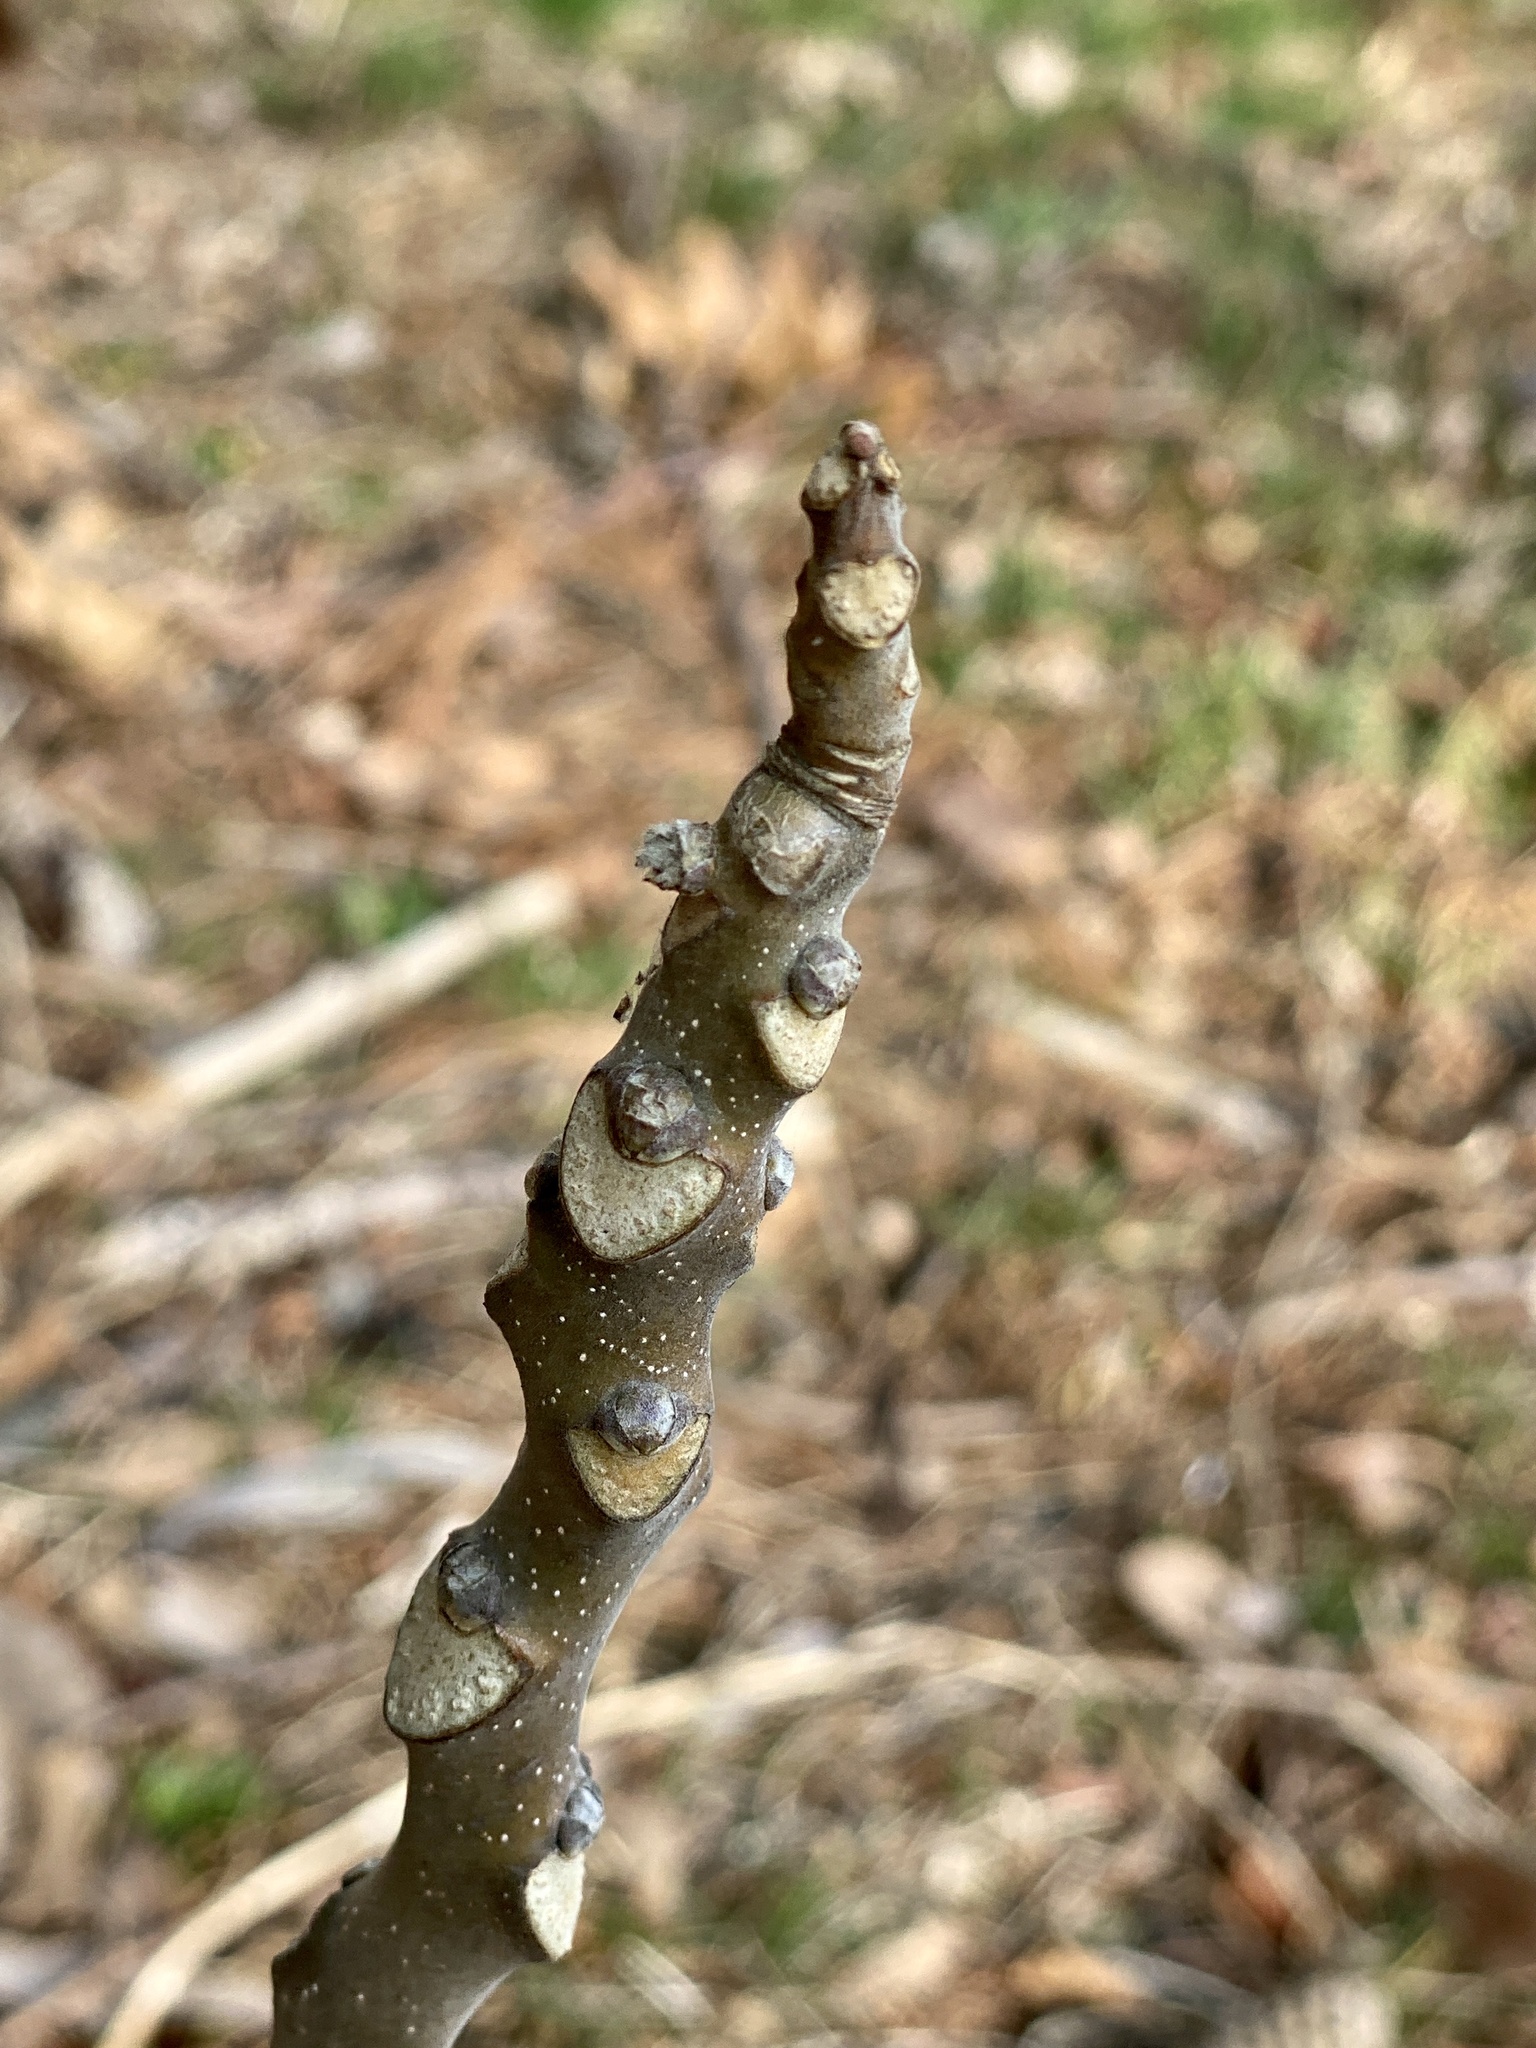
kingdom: Plantae
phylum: Tracheophyta
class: Magnoliopsida
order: Sapindales
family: Simaroubaceae
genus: Ailanthus
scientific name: Ailanthus altissima
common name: Tree-of-heaven
